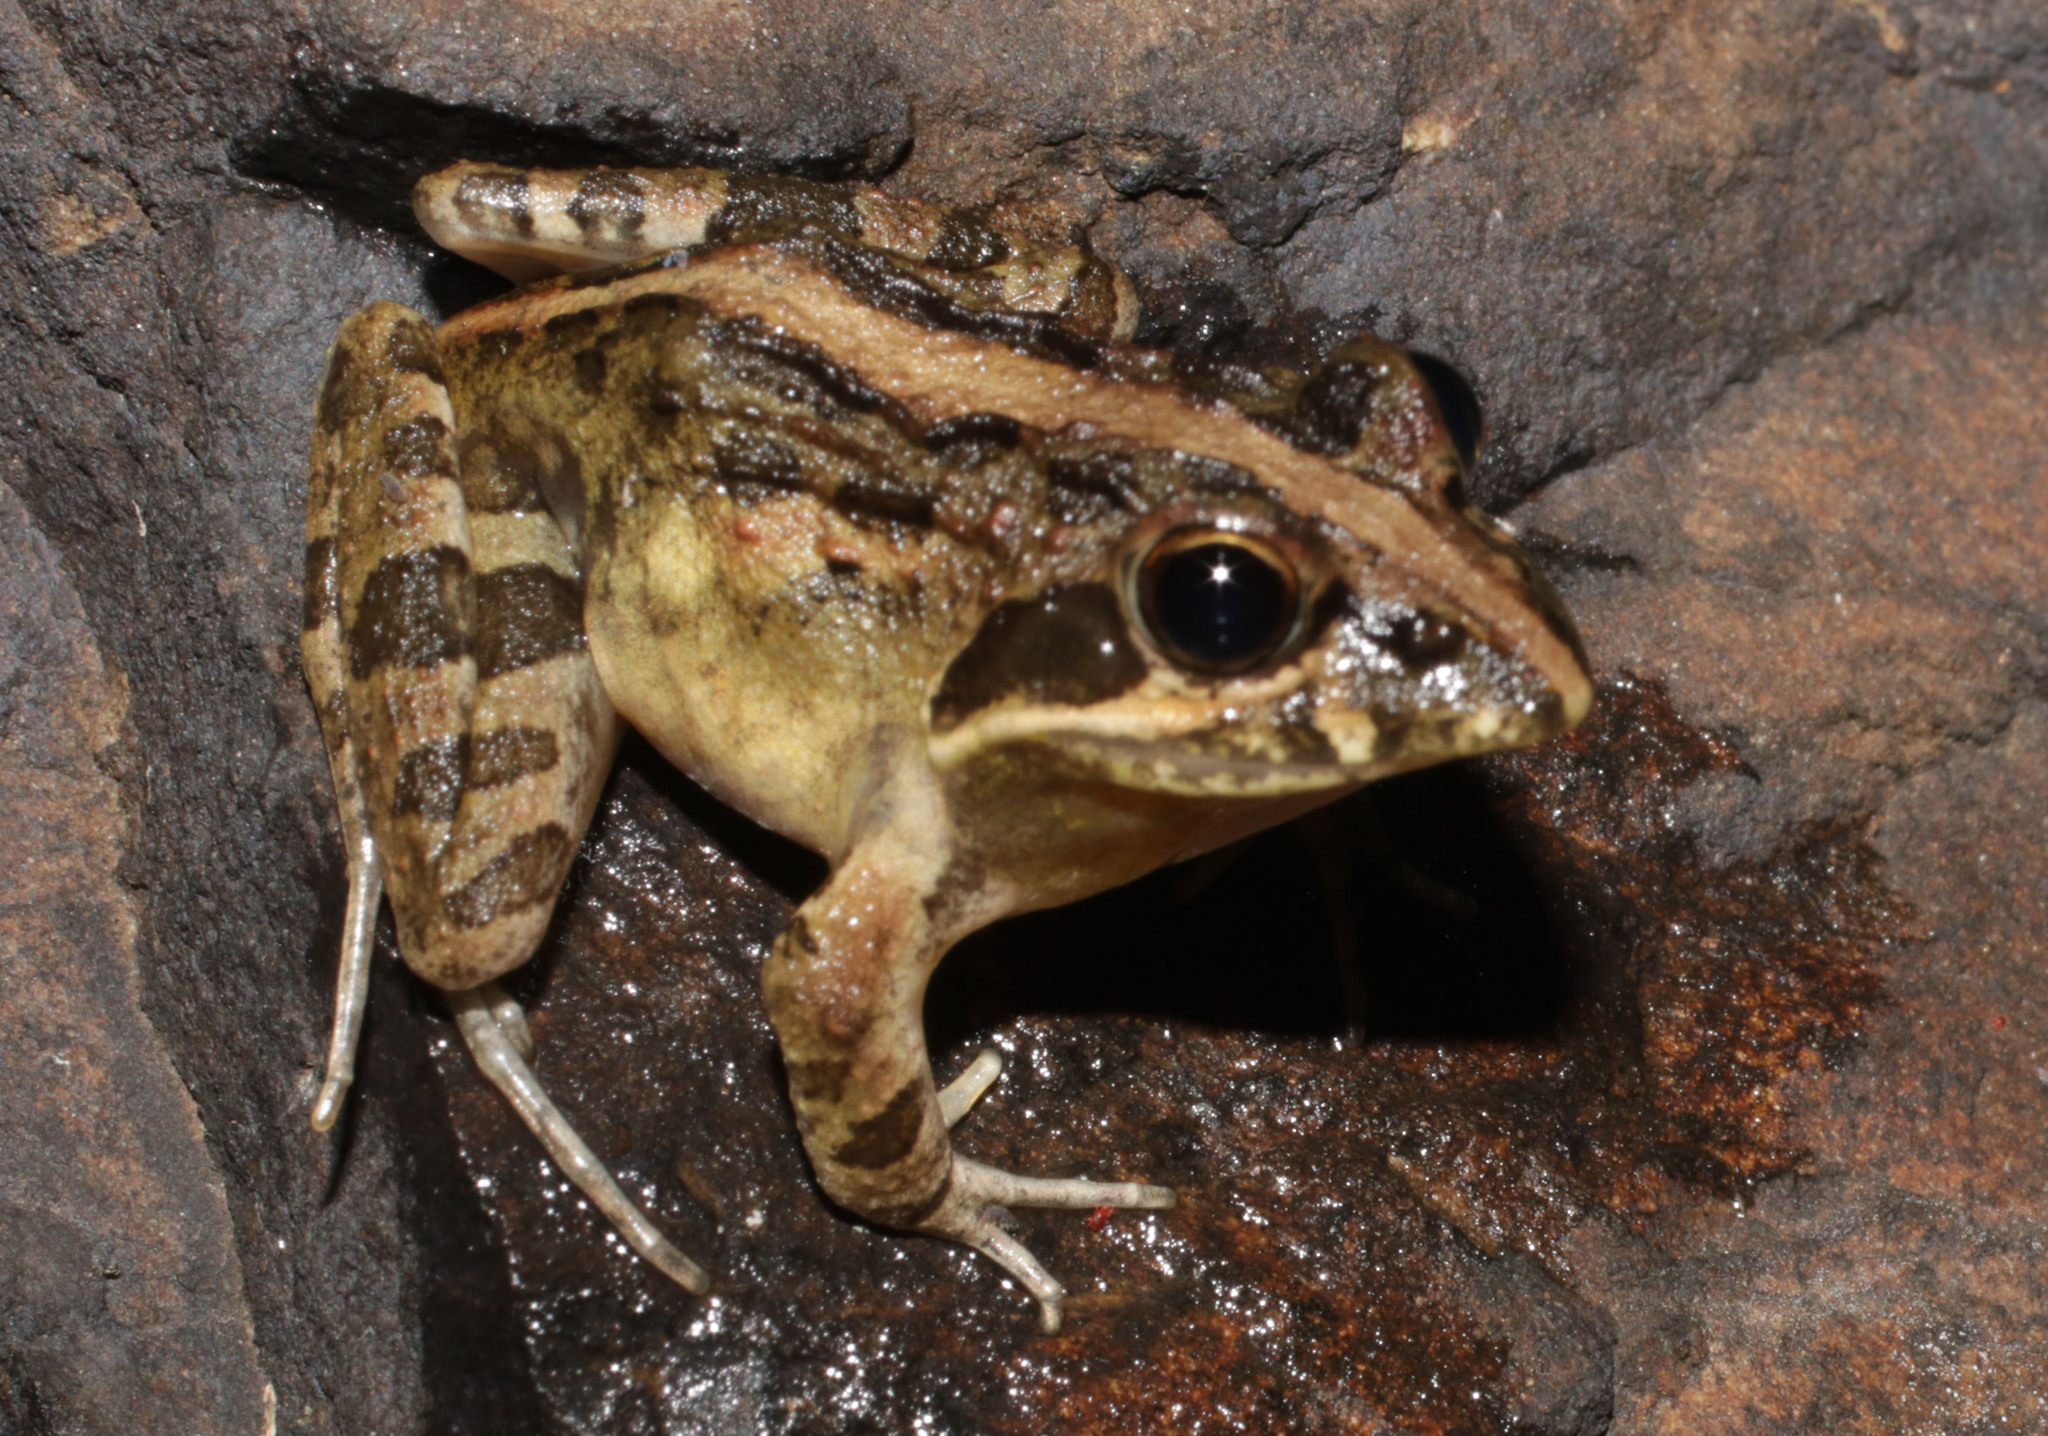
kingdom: Animalia
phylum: Chordata
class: Amphibia
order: Anura
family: Pyxicephalidae
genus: Strongylopus
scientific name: Strongylopus grayii
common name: Gray's stream frog
